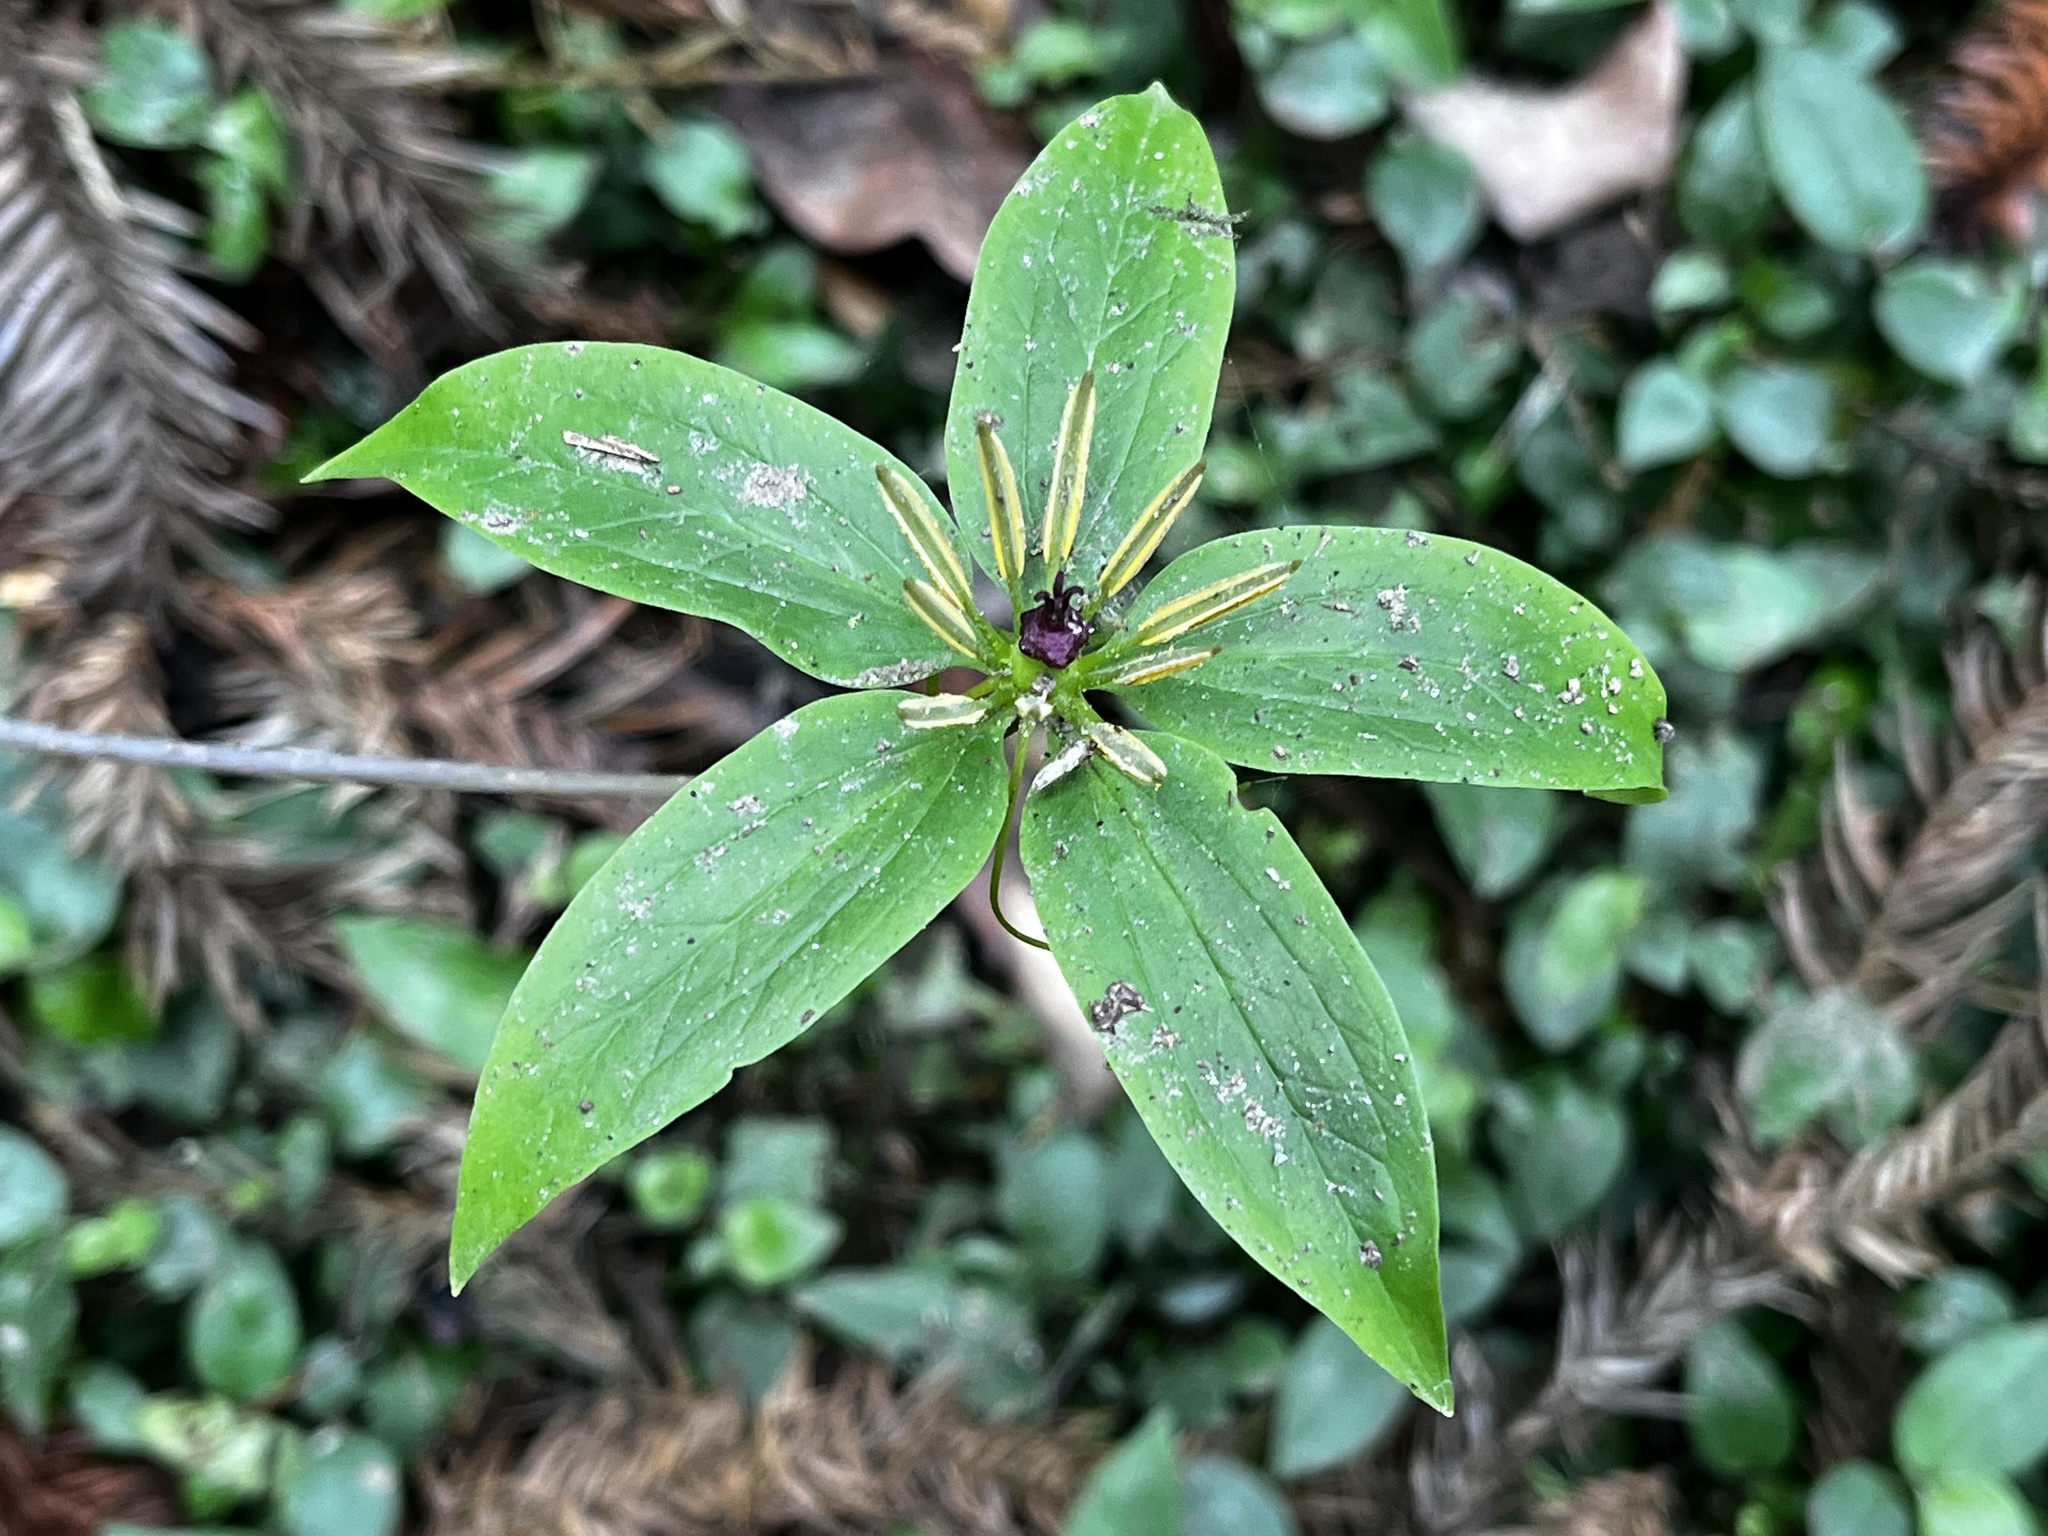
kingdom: Plantae
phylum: Tracheophyta
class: Liliopsida
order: Liliales
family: Melanthiaceae
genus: Paris
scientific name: Paris polyphylla
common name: Love apple
